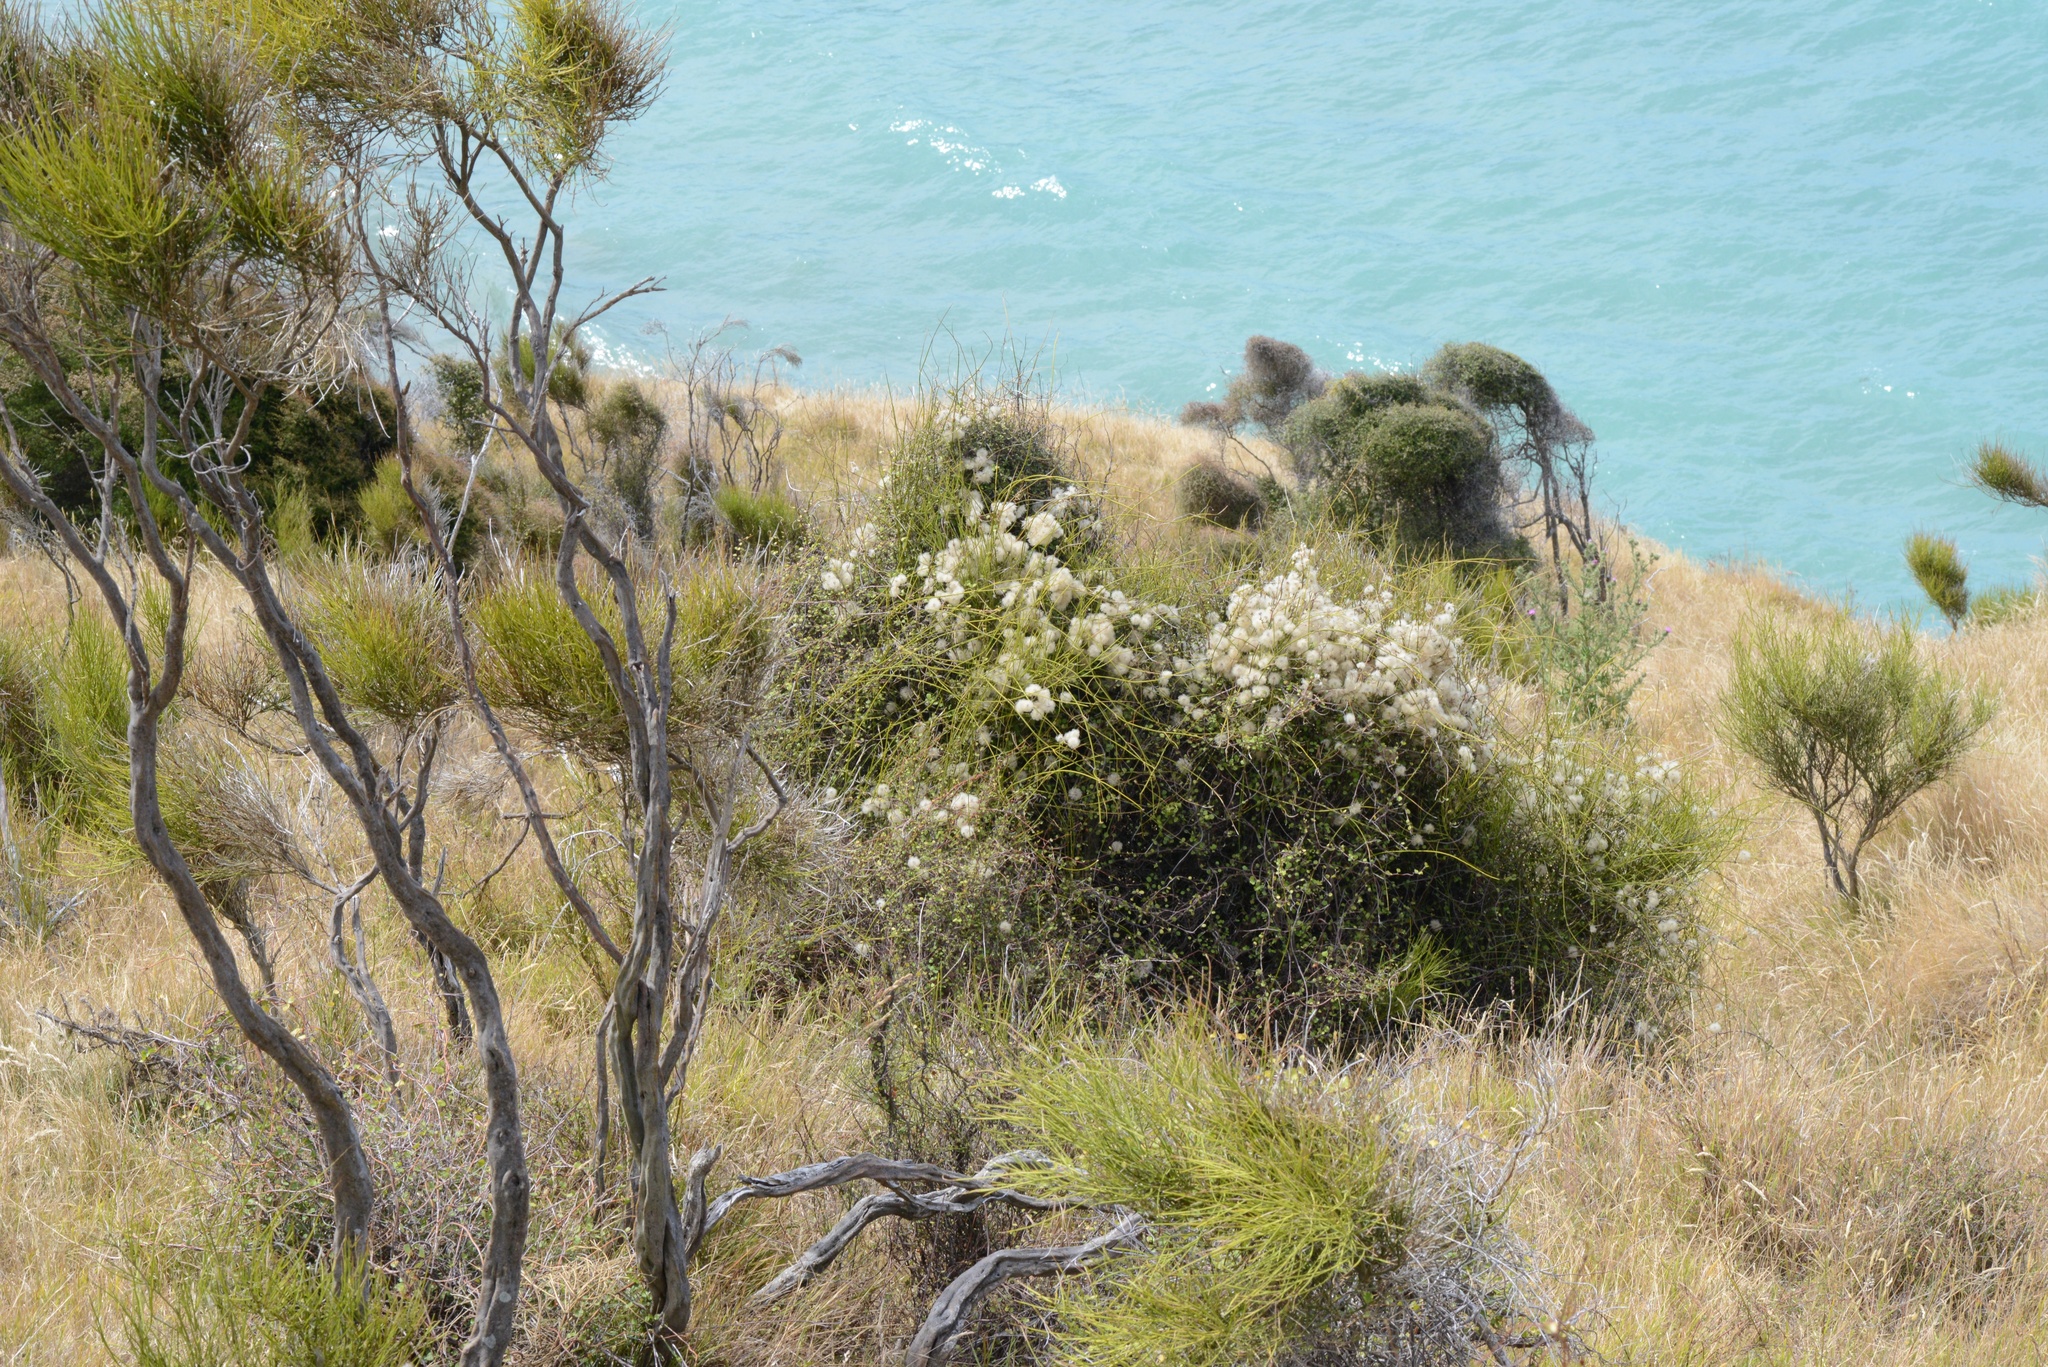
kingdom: Plantae
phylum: Tracheophyta
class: Magnoliopsida
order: Ranunculales
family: Ranunculaceae
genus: Clematis
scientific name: Clematis afoliata
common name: Rush-stem clematis
